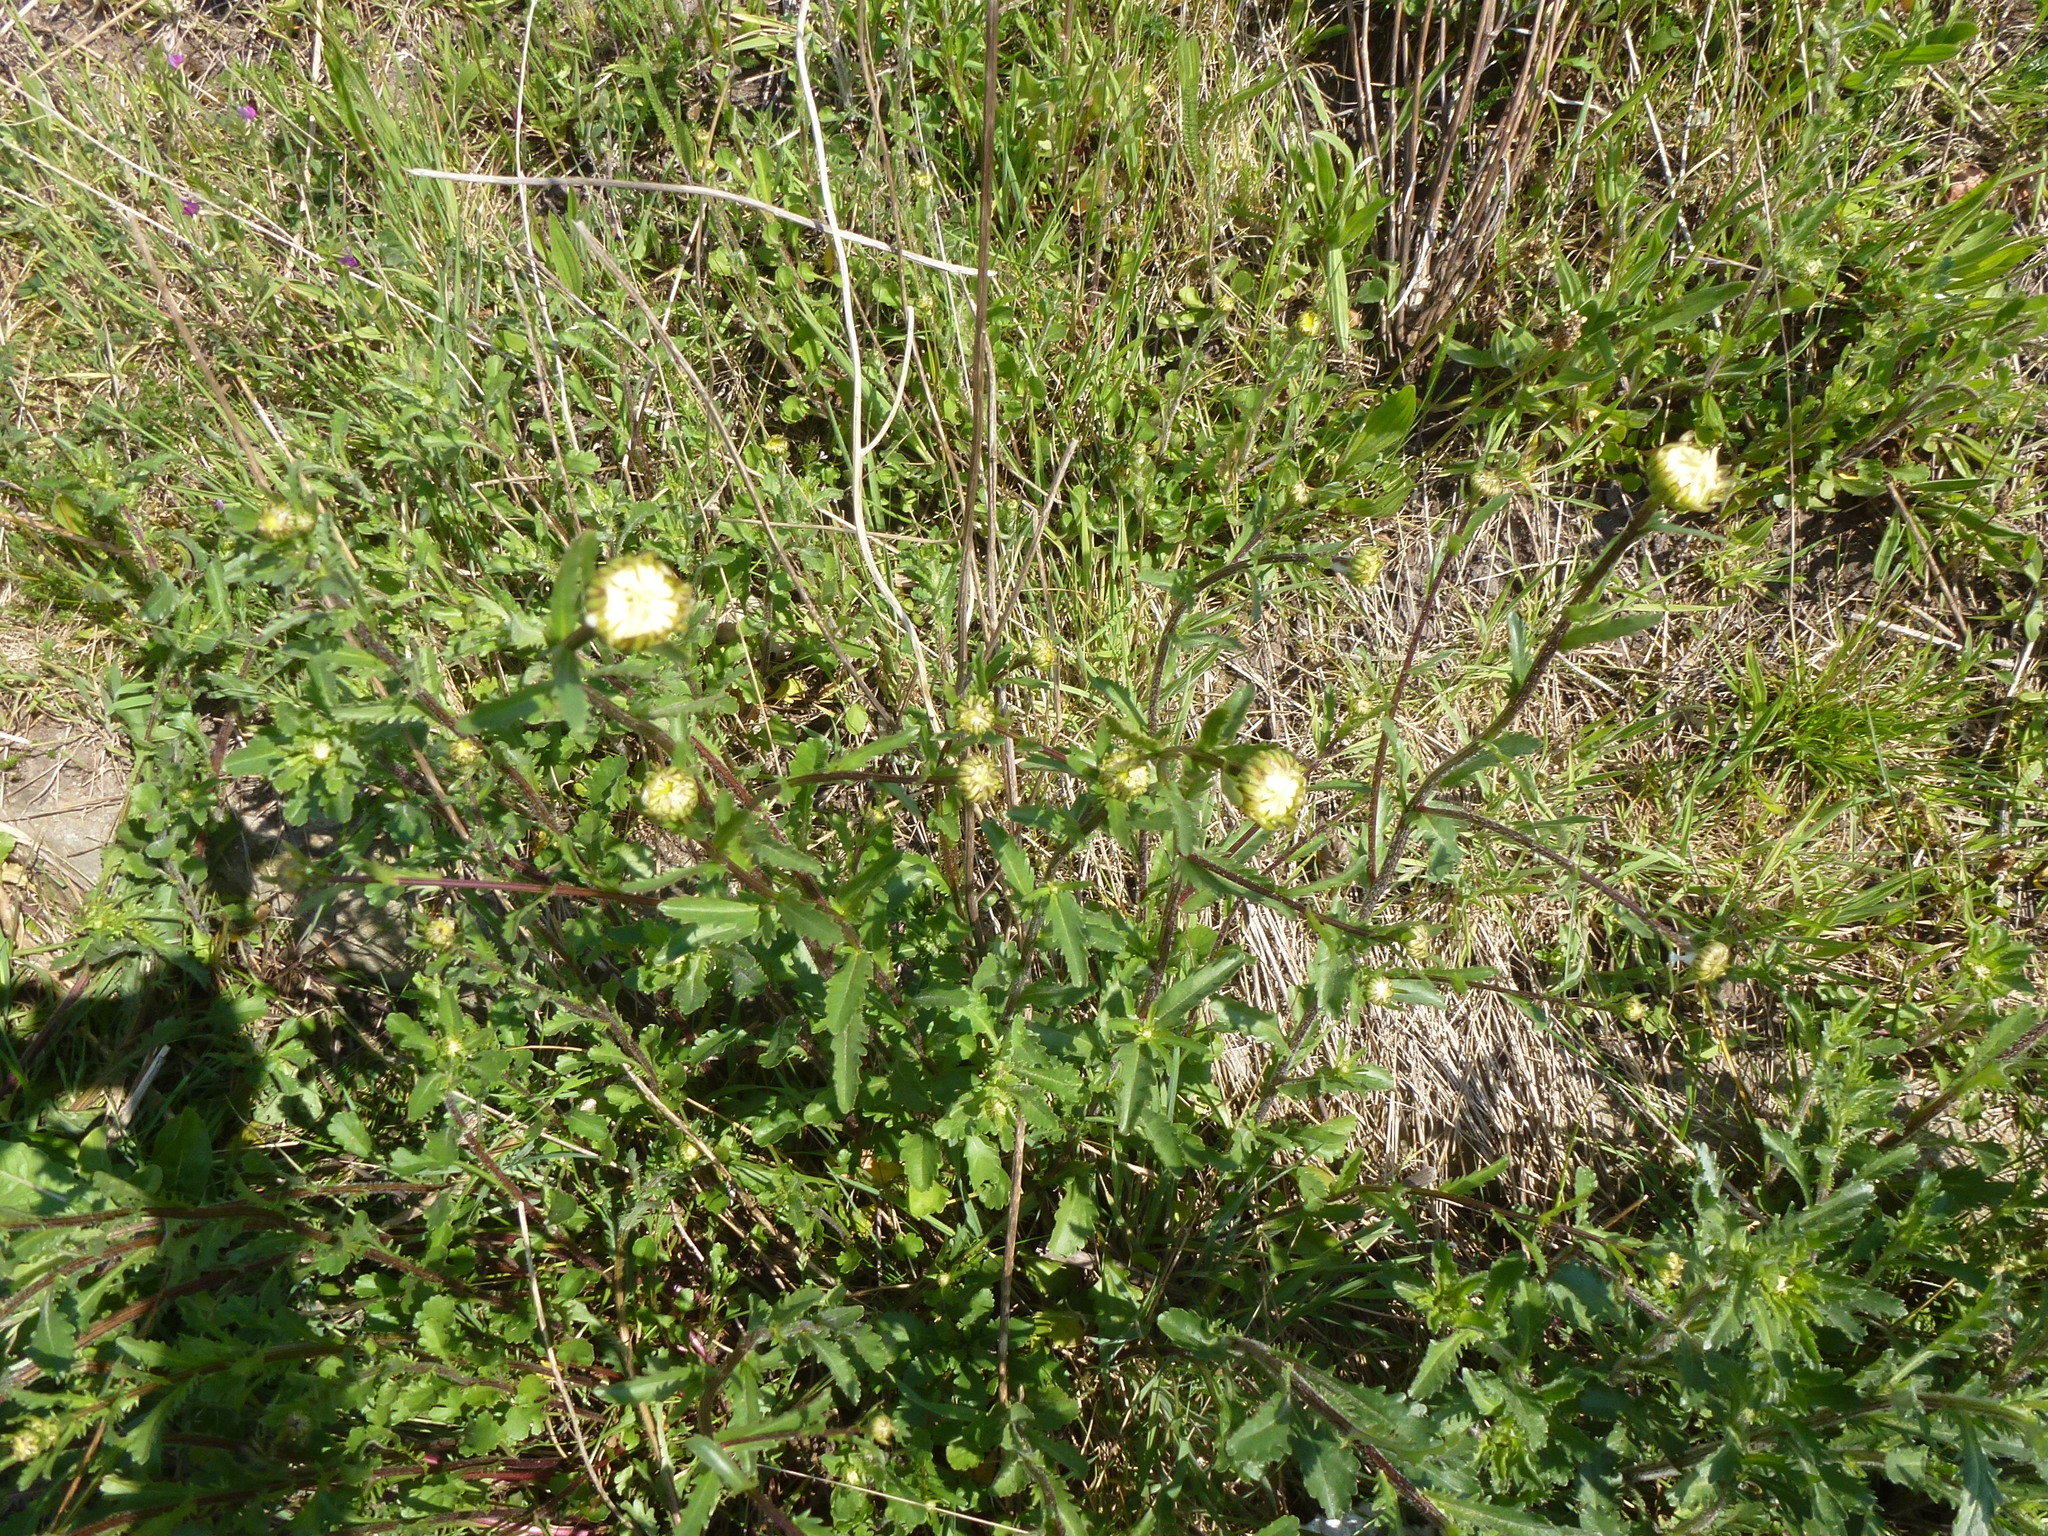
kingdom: Plantae
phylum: Tracheophyta
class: Magnoliopsida
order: Asterales
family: Asteraceae
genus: Leucanthemum
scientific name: Leucanthemum vulgare
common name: Oxeye daisy
